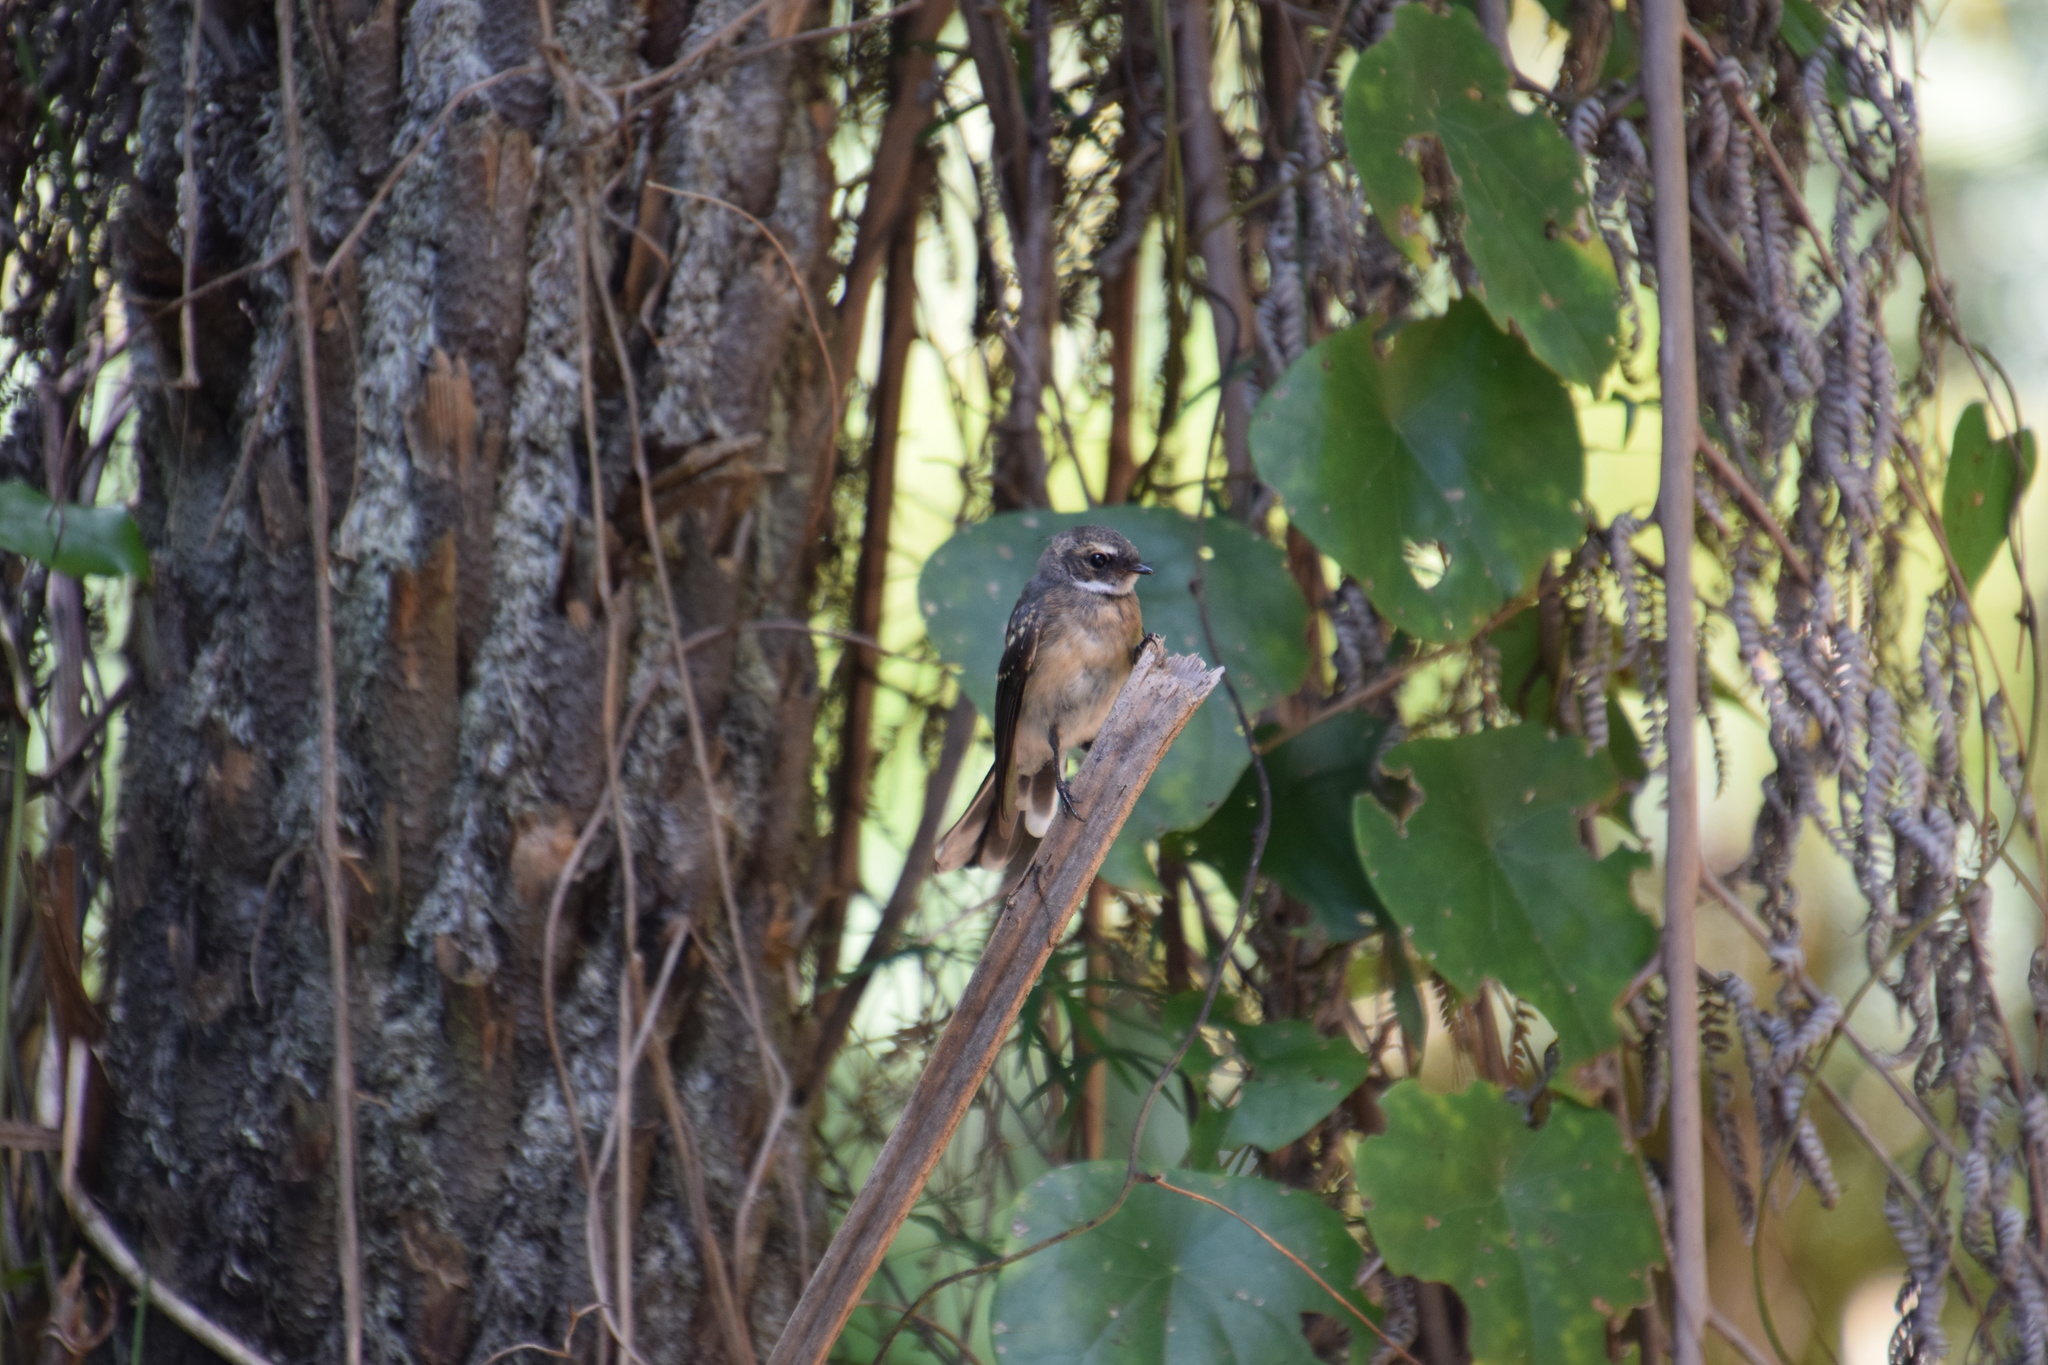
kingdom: Animalia
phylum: Chordata
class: Aves
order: Passeriformes
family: Rhipiduridae
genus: Rhipidura
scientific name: Rhipidura albiscapa
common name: Grey fantail
